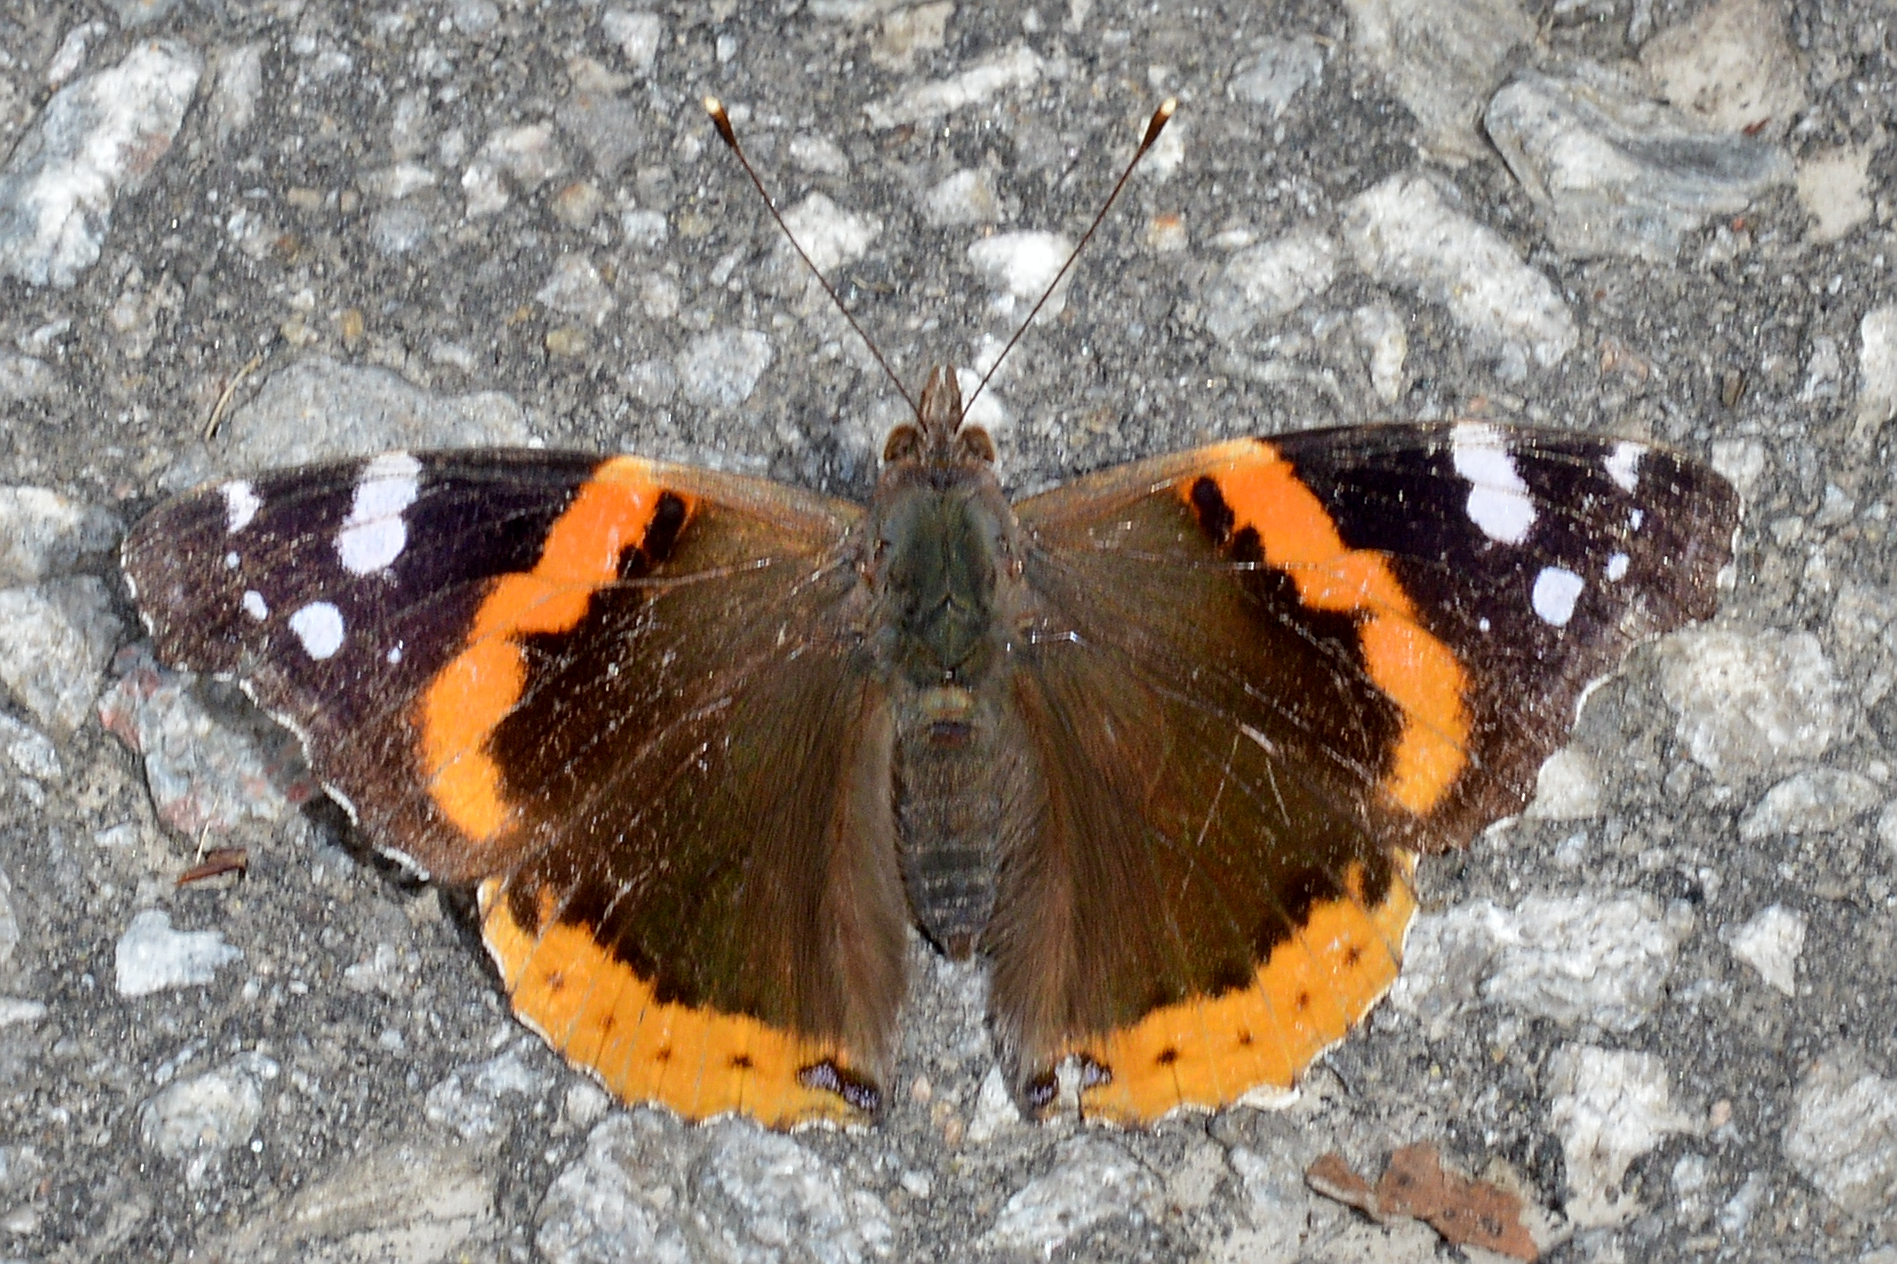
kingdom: Animalia
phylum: Arthropoda
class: Insecta
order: Lepidoptera
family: Nymphalidae
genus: Vanessa
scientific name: Vanessa atalanta
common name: Red admiral
